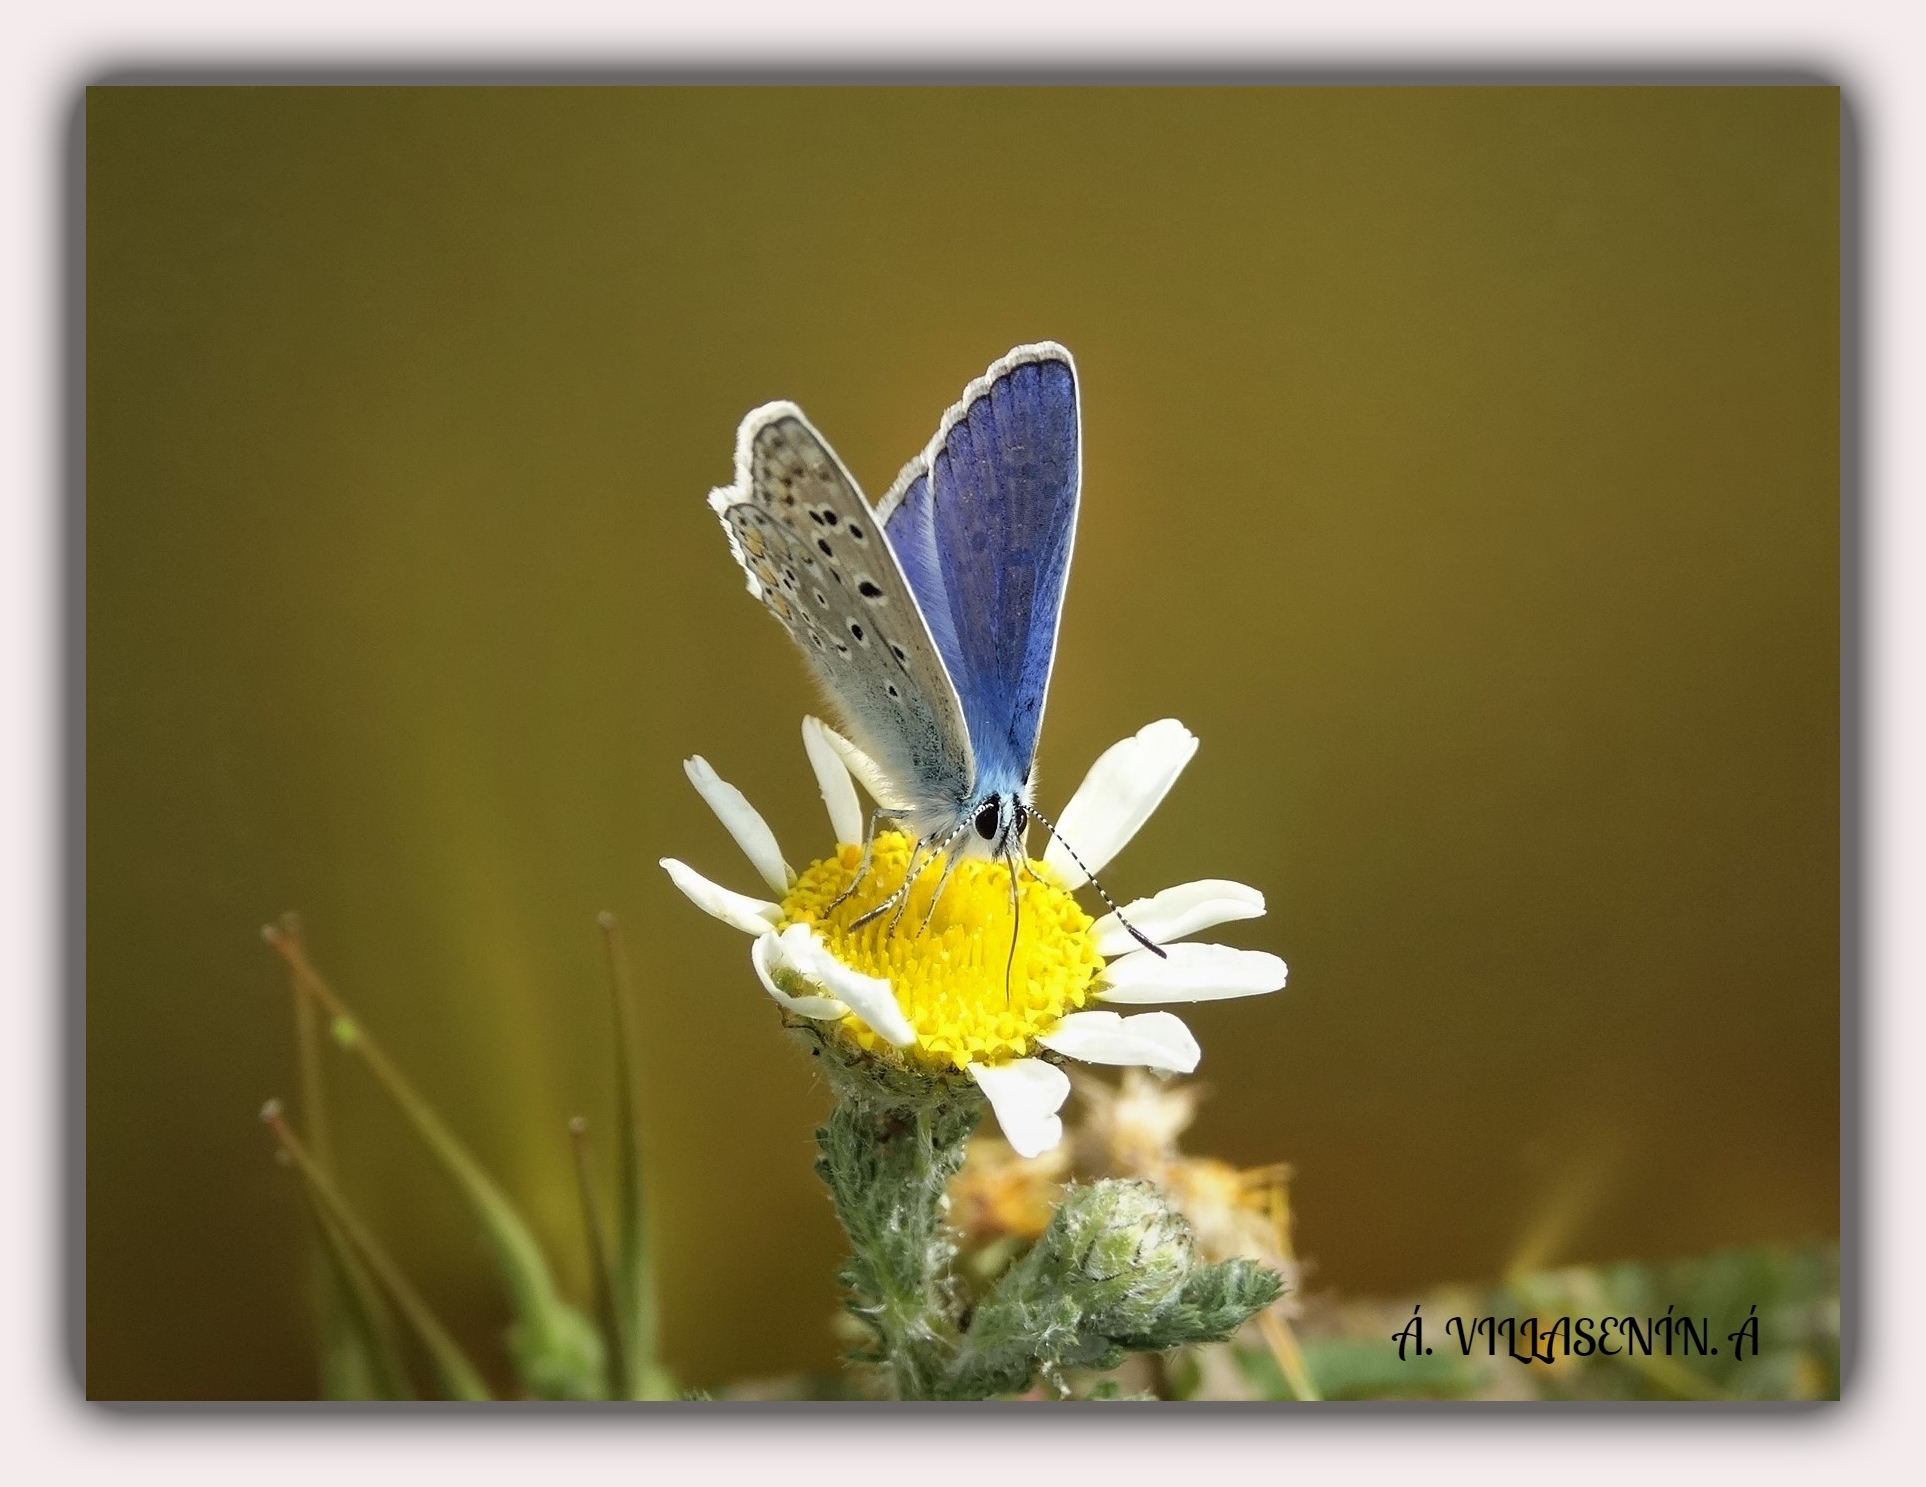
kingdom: Animalia
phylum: Arthropoda
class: Insecta
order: Lepidoptera
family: Lycaenidae
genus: Polyommatus
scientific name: Polyommatus icarus
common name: Common blue
